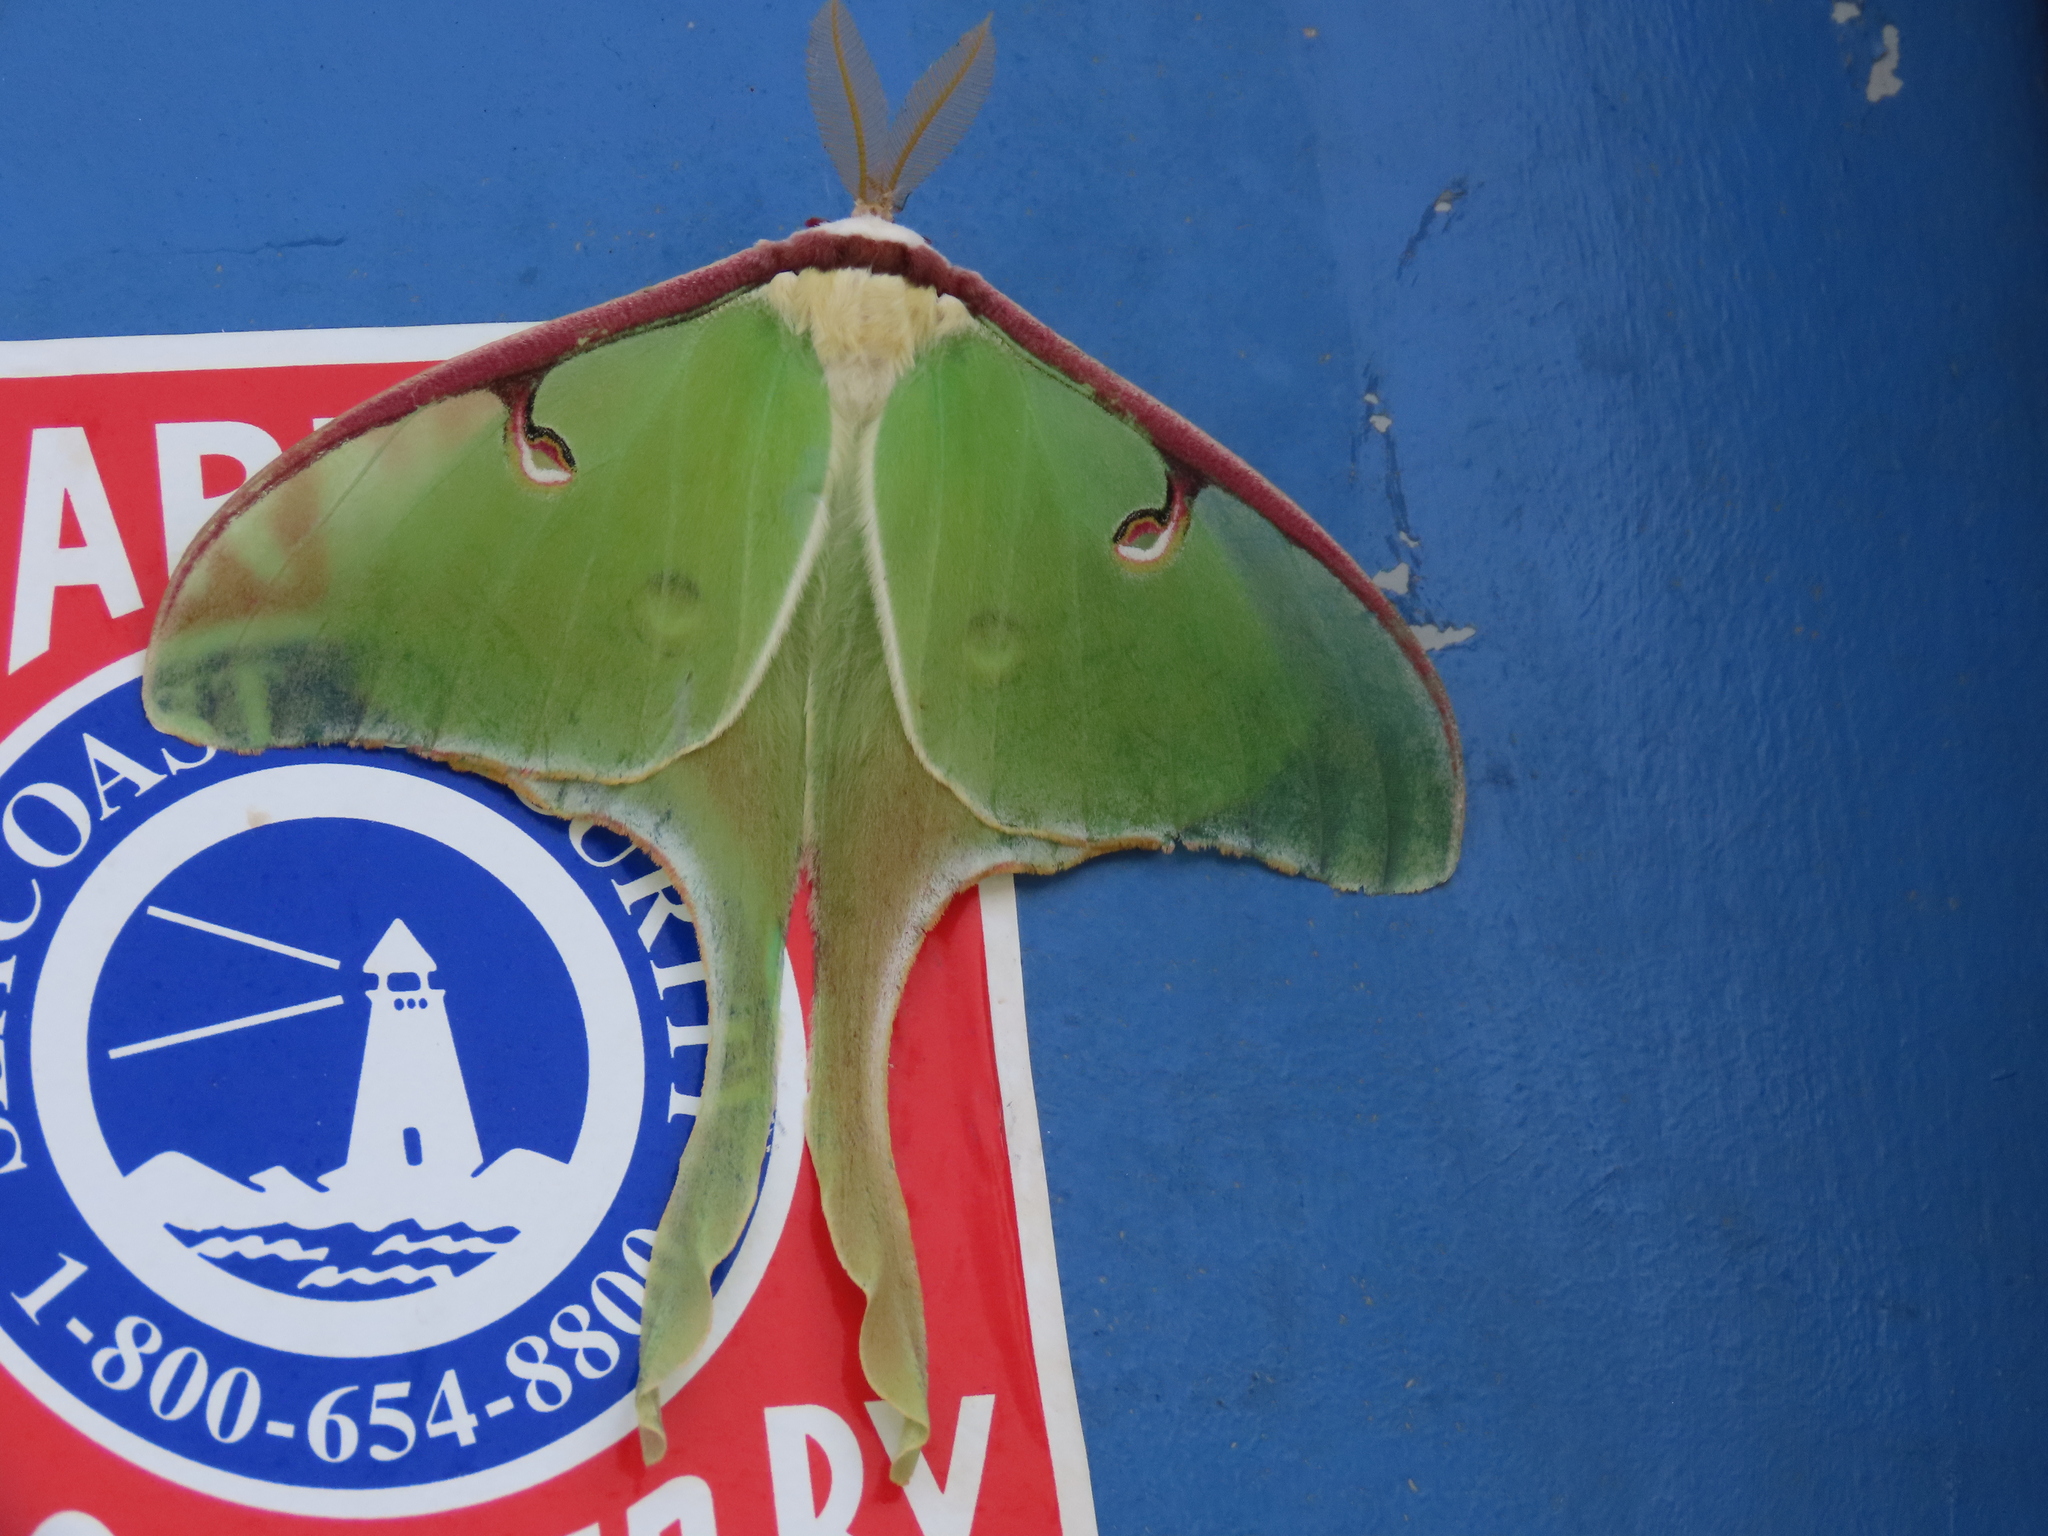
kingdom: Animalia
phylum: Arthropoda
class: Insecta
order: Lepidoptera
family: Saturniidae
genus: Actias
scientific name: Actias luna
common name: Luna moth
